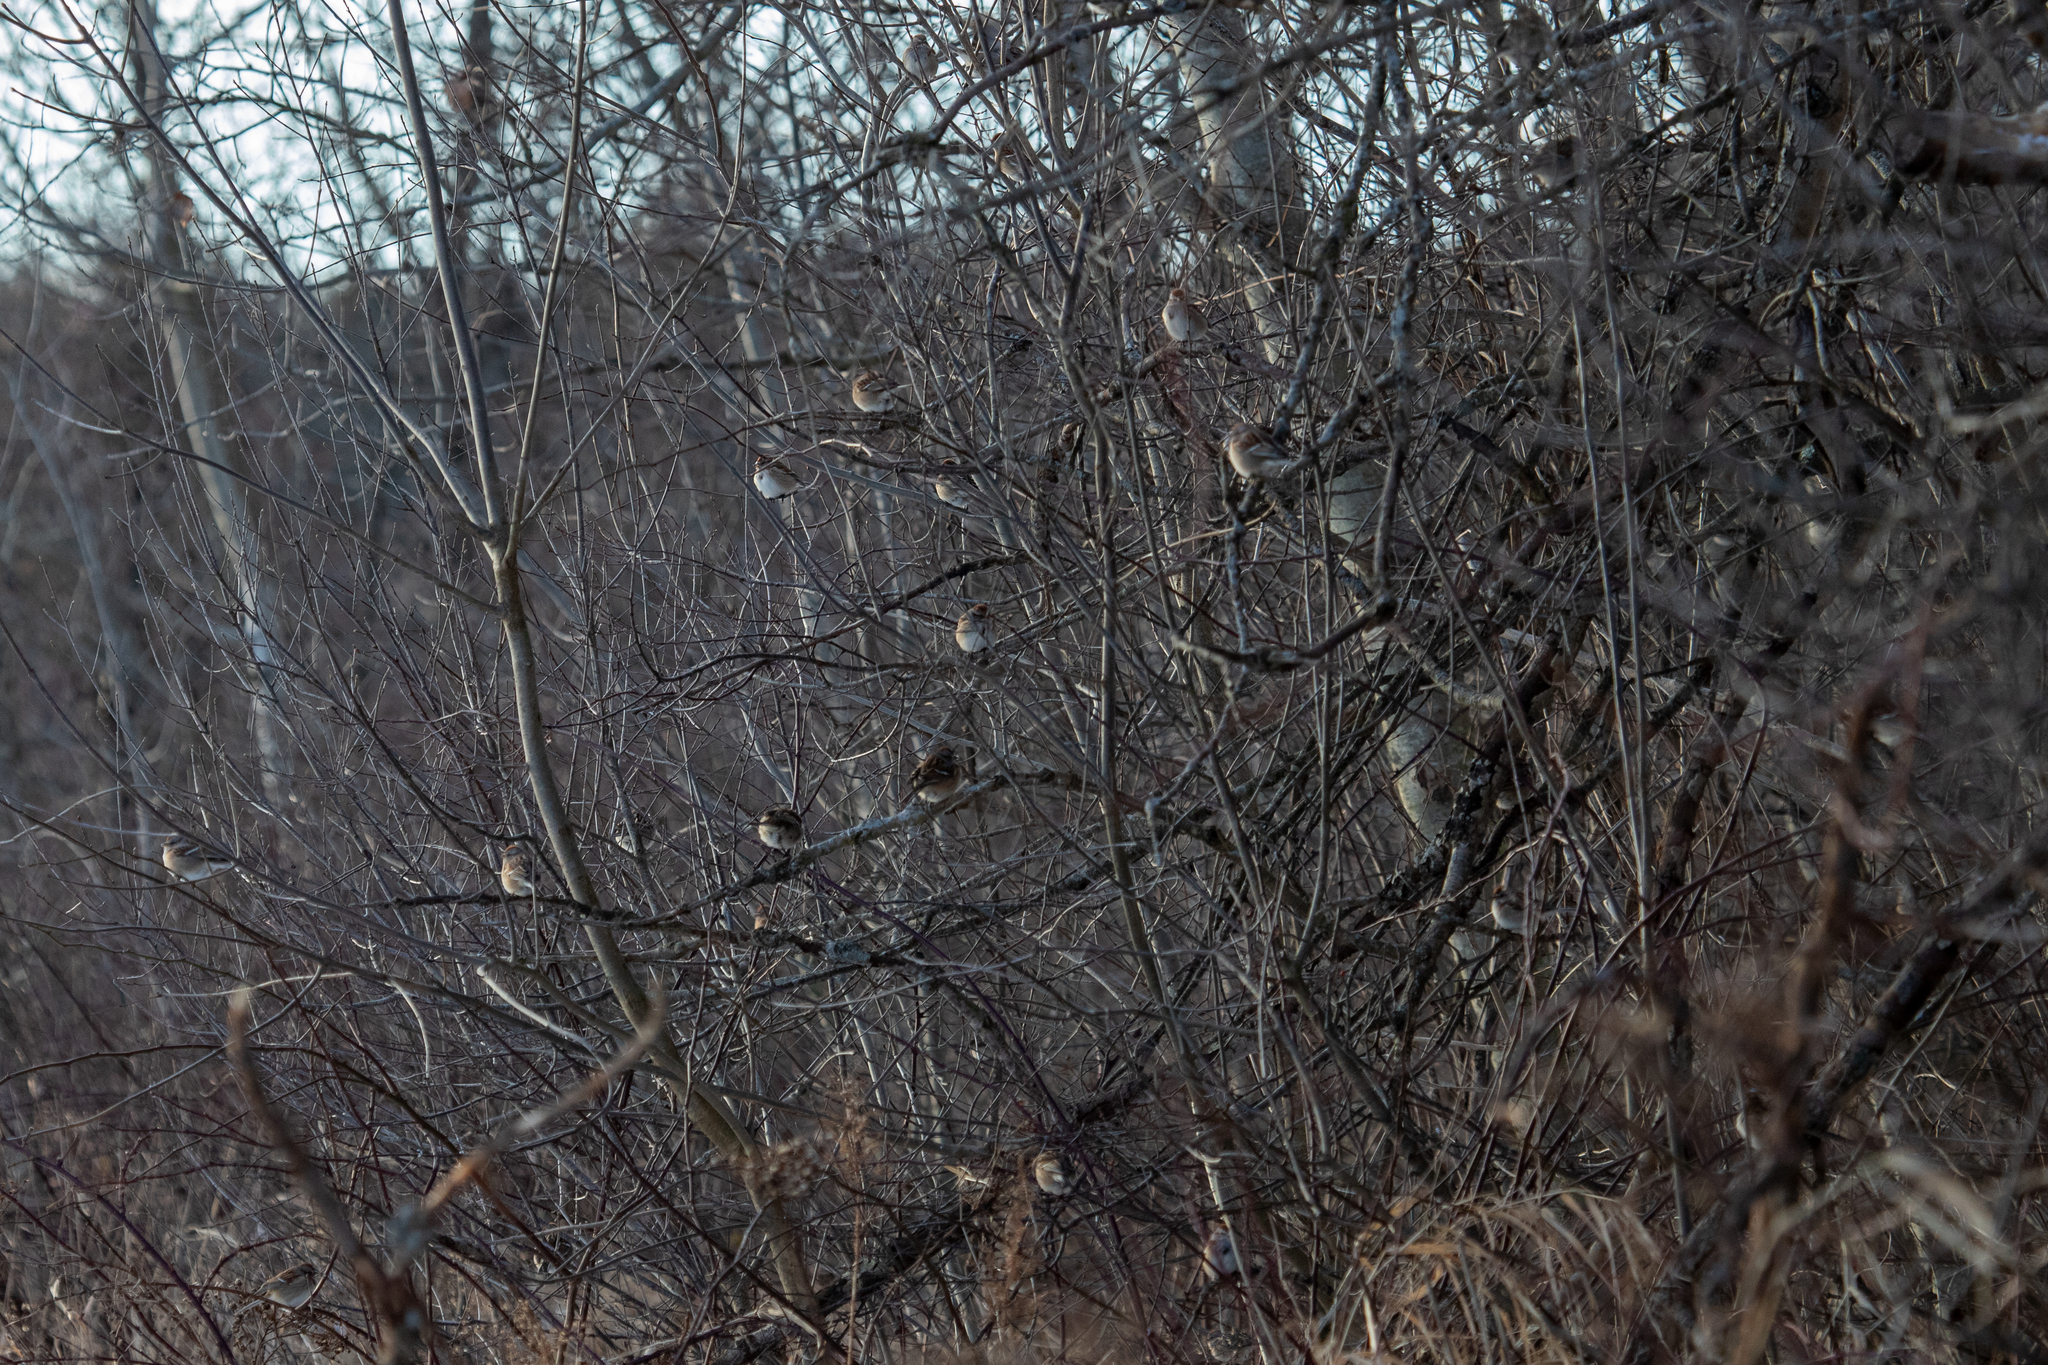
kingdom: Animalia
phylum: Chordata
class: Aves
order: Passeriformes
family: Passerellidae
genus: Spizelloides
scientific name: Spizelloides arborea
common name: American tree sparrow
